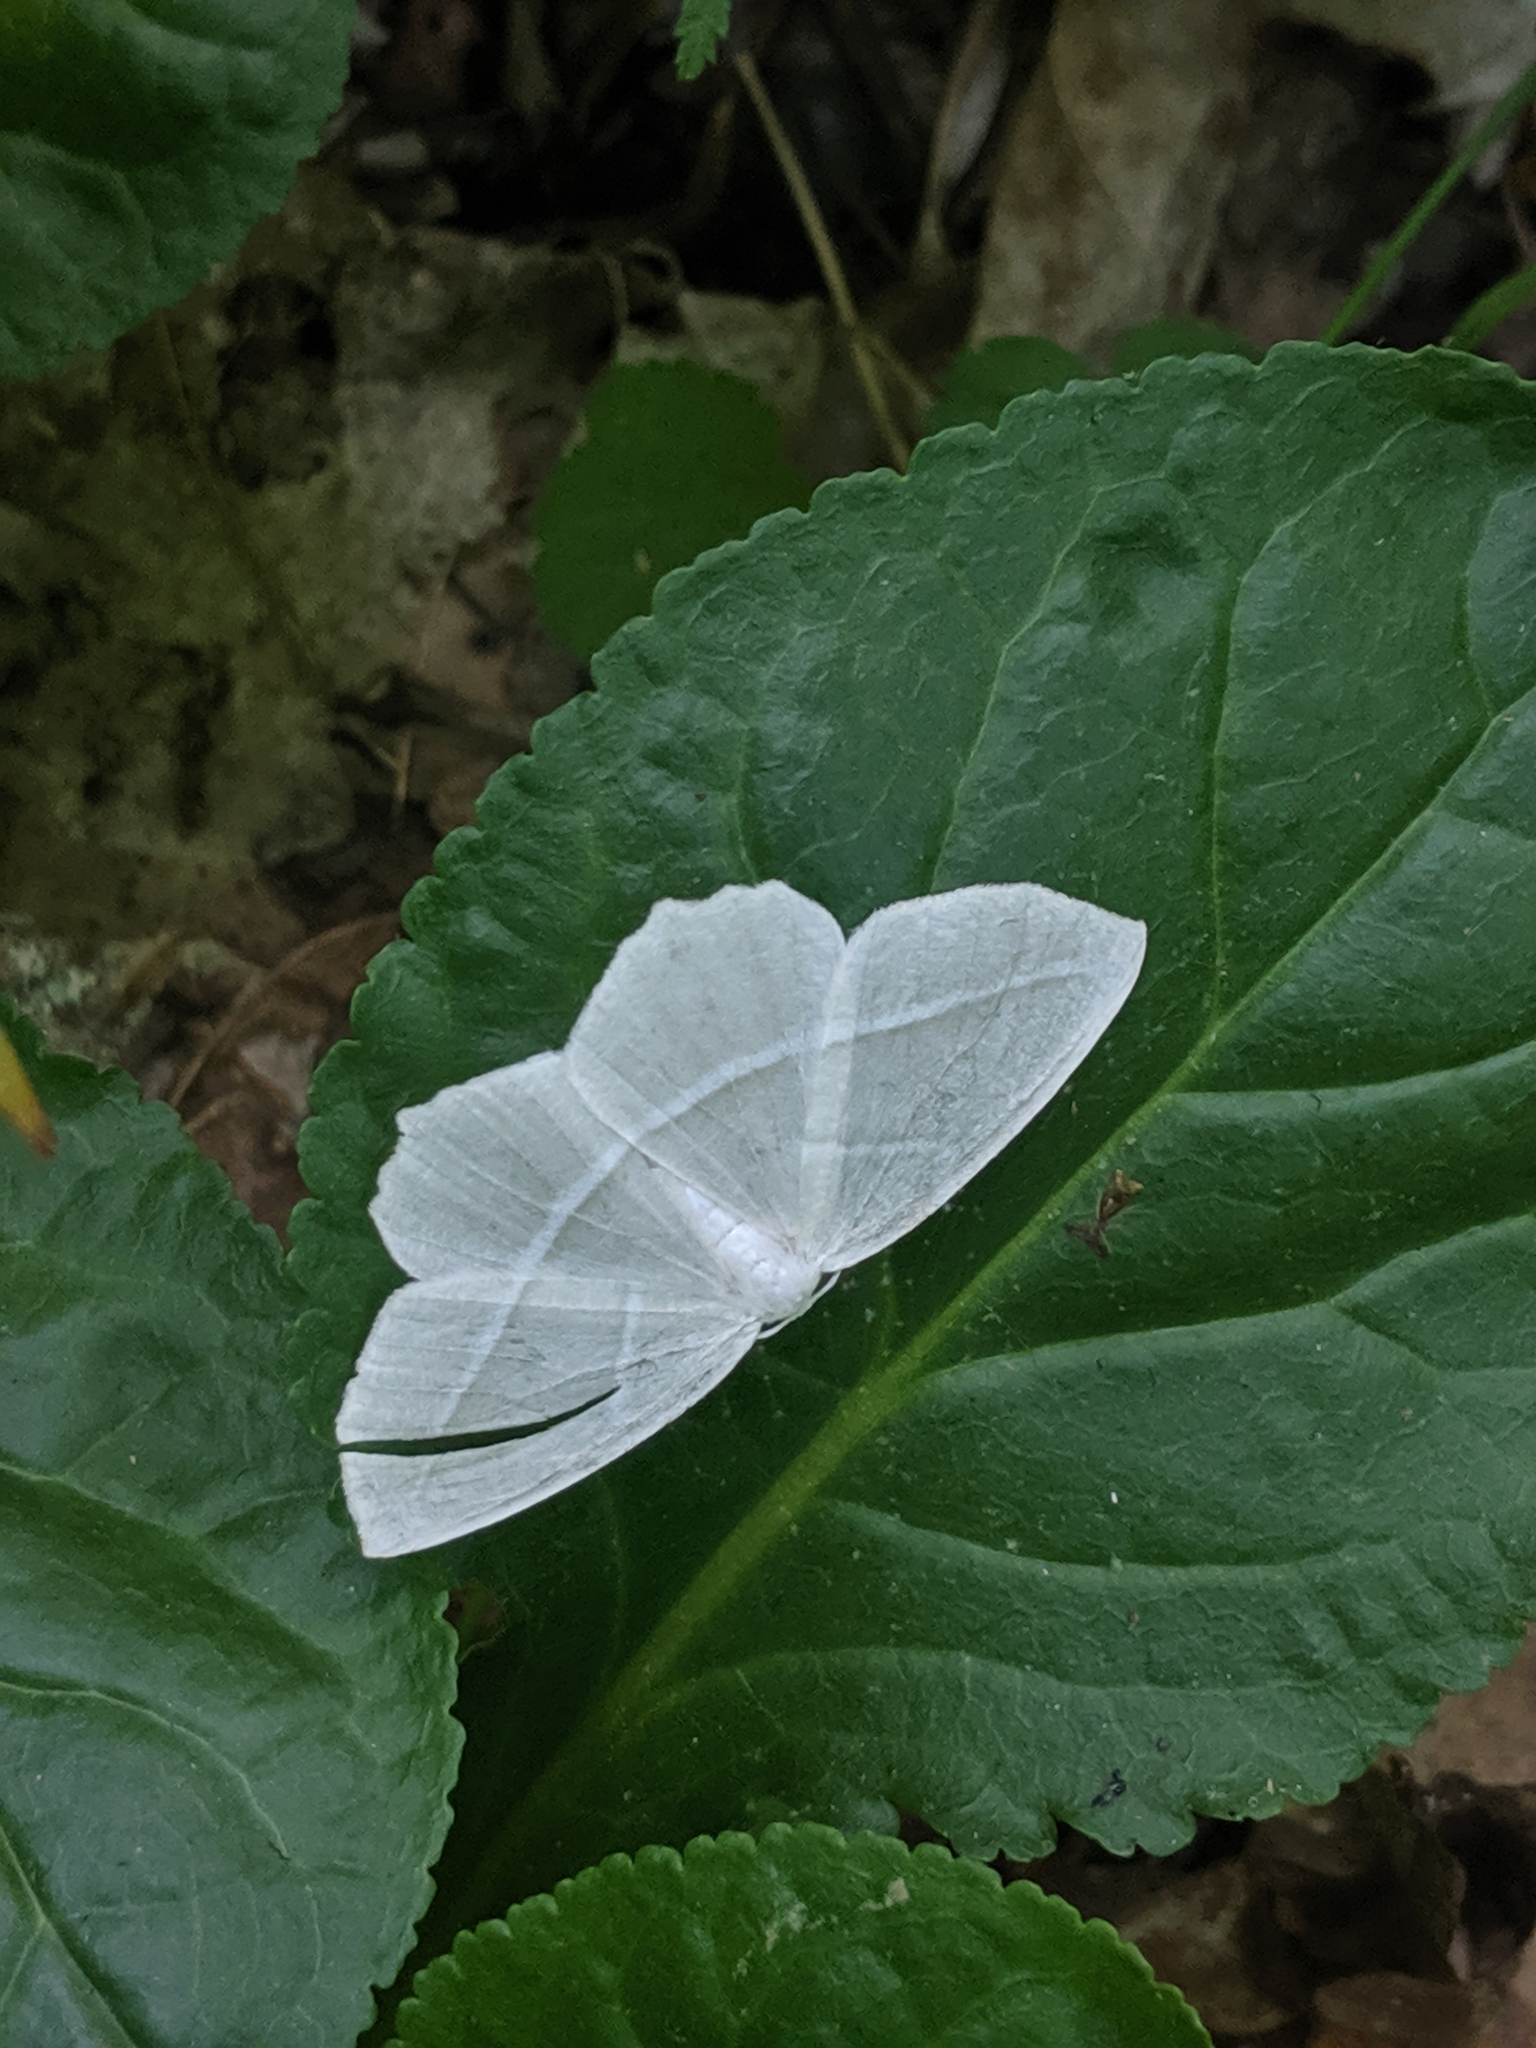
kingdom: Animalia
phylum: Arthropoda
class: Insecta
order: Lepidoptera
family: Geometridae
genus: Campaea
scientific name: Campaea perlata
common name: Fringed looper
